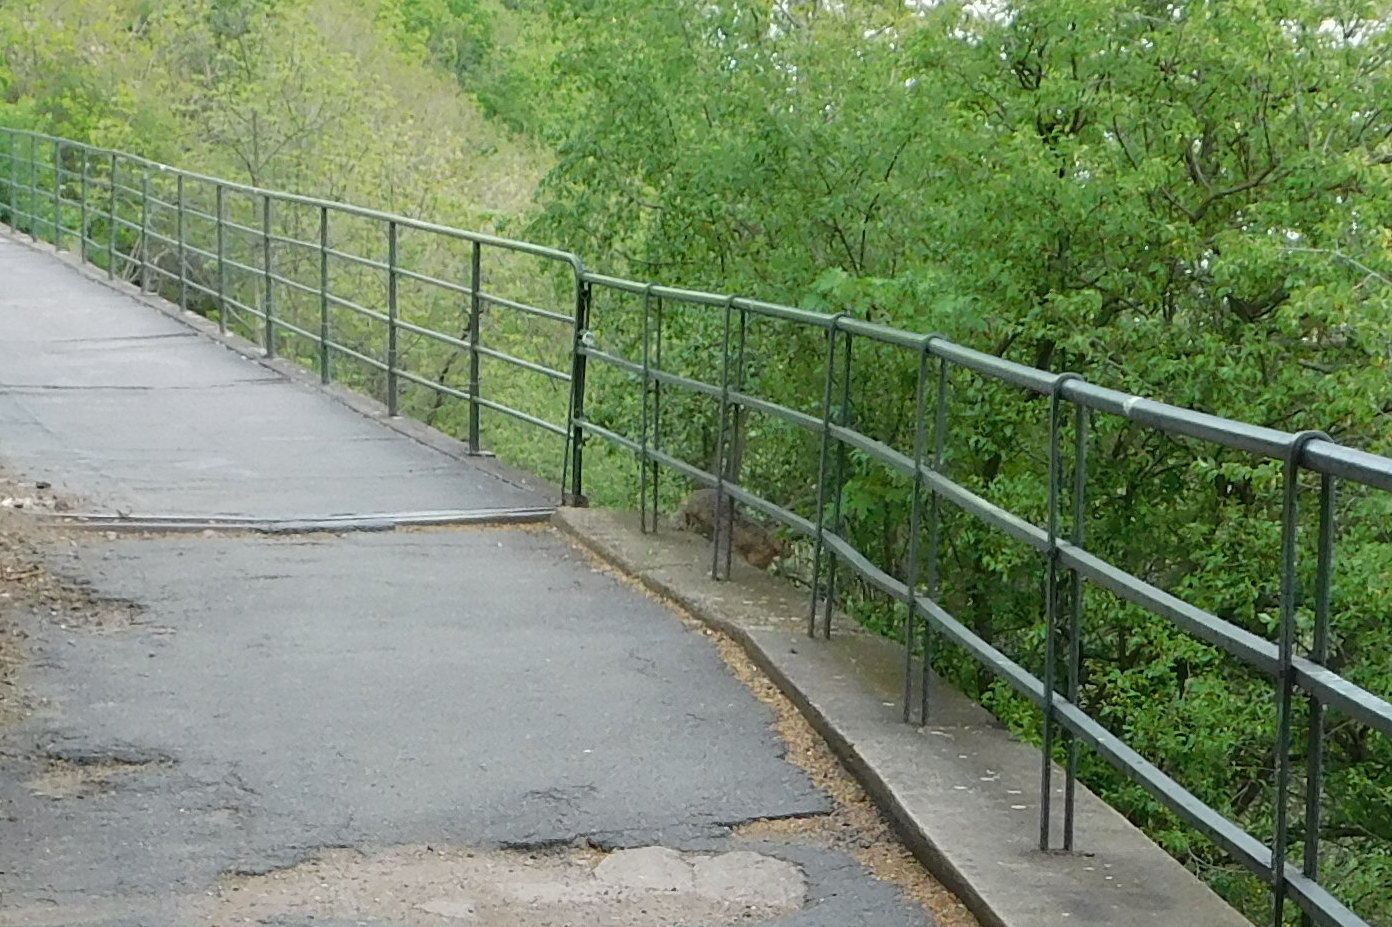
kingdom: Animalia
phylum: Chordata
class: Mammalia
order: Lagomorpha
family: Leporidae
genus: Lepus
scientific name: Lepus europaeus
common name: European hare
